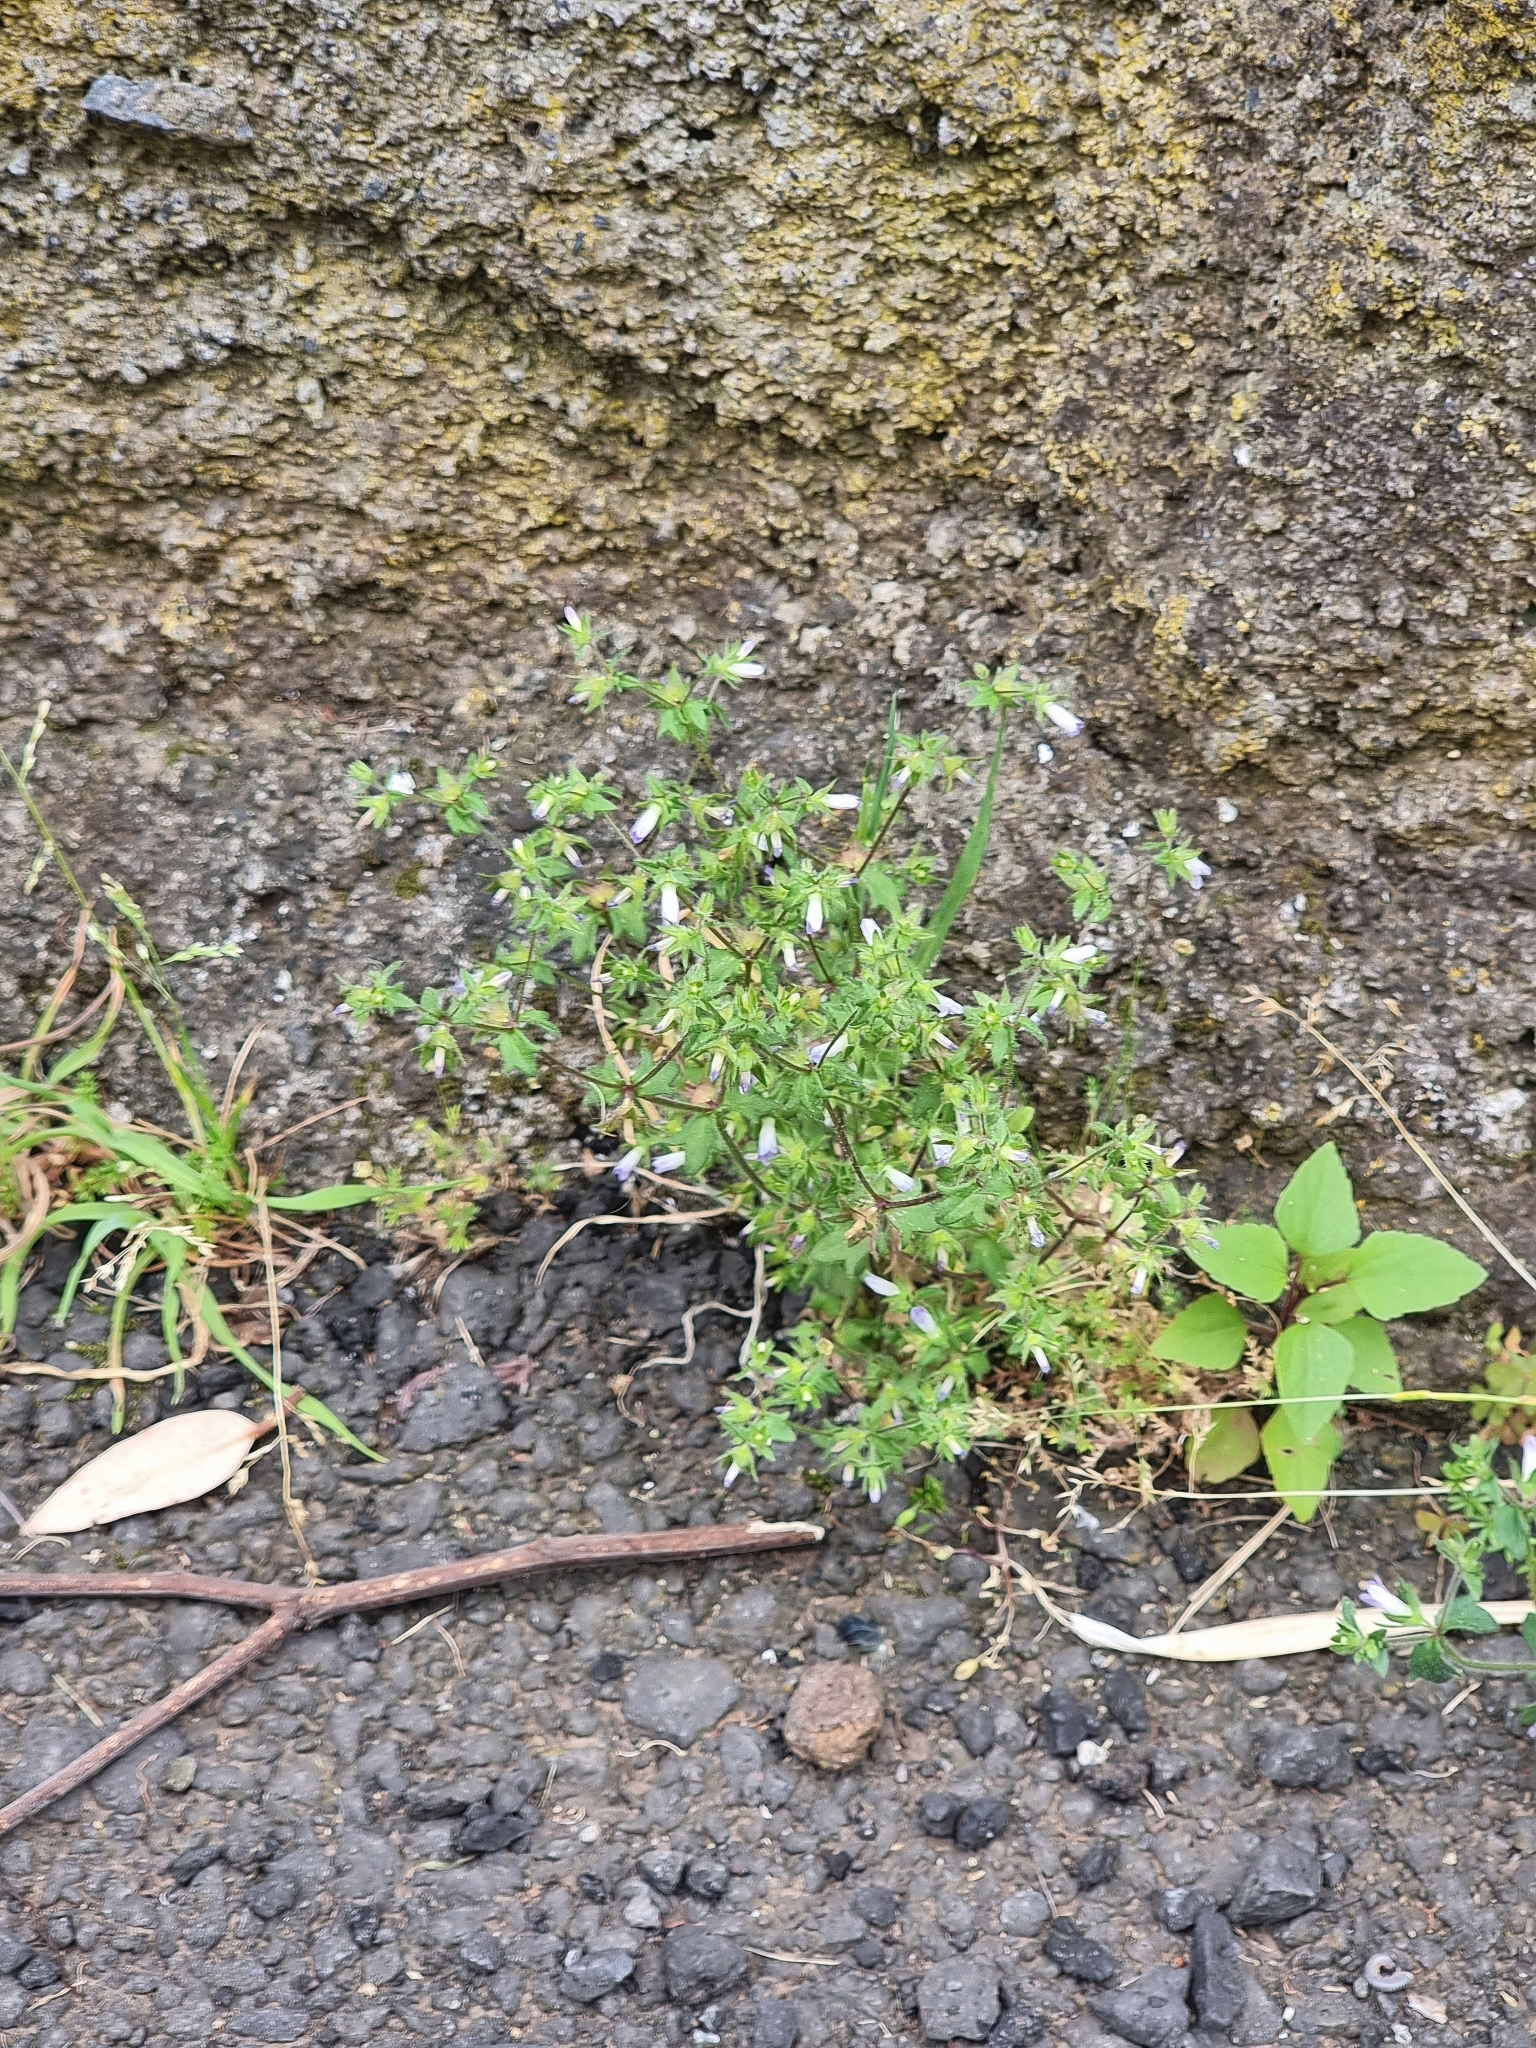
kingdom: Plantae
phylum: Tracheophyta
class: Magnoliopsida
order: Asterales
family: Campanulaceae
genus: Campanula
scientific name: Campanula erinus
